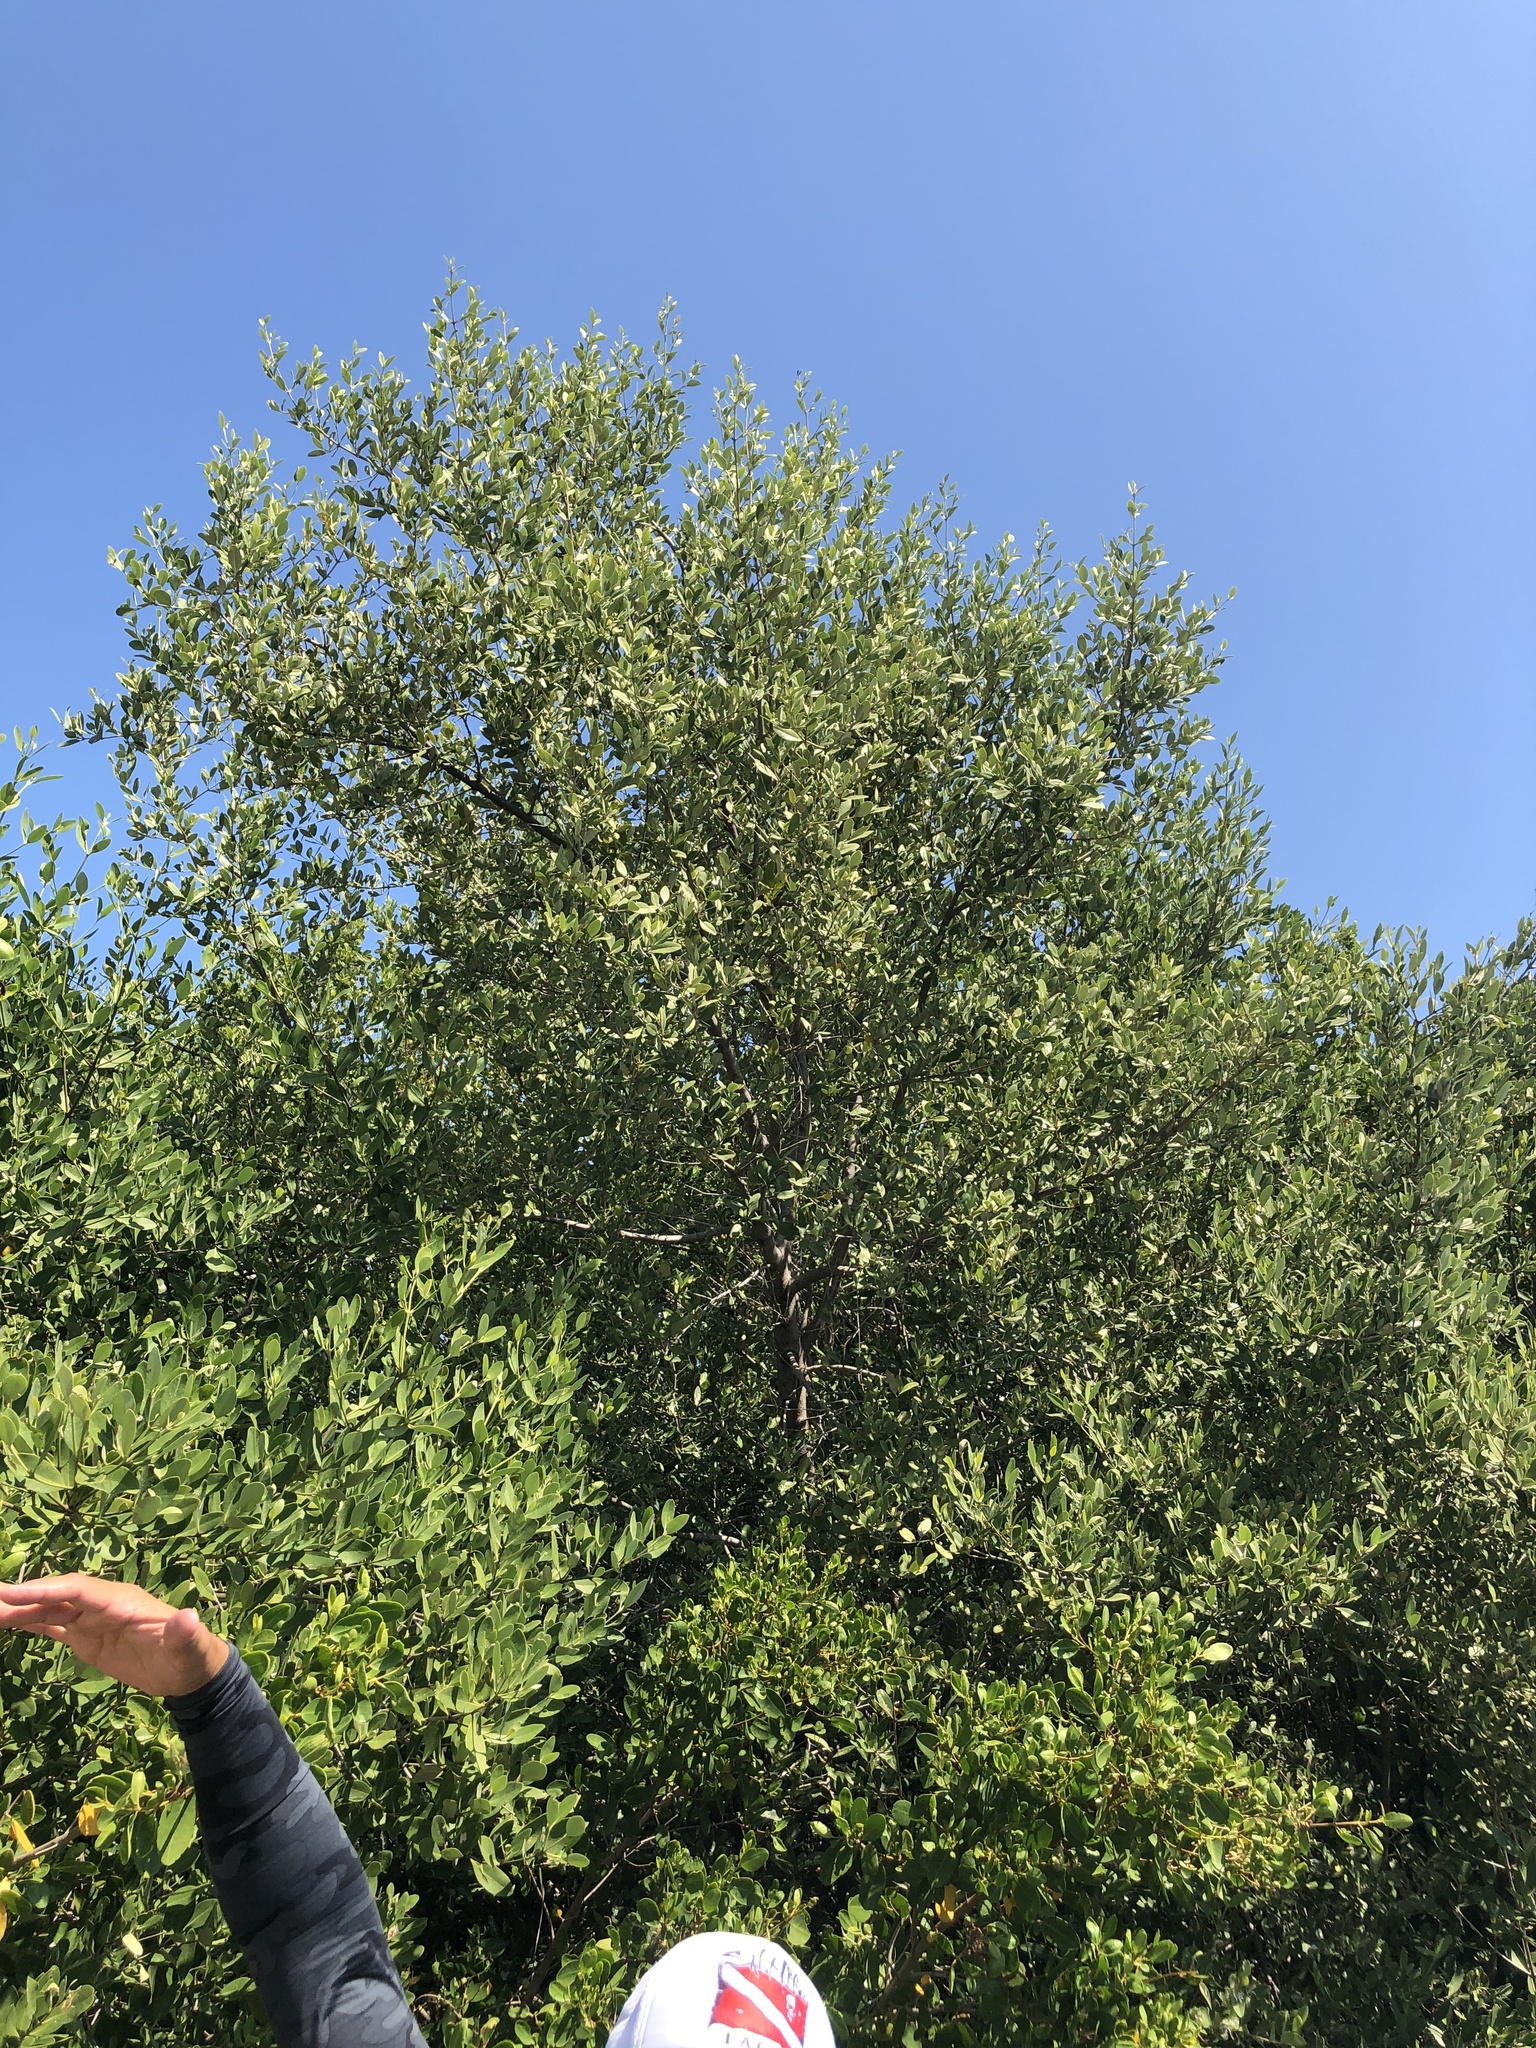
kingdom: Plantae
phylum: Tracheophyta
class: Magnoliopsida
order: Lamiales
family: Acanthaceae
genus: Avicennia
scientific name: Avicennia germinans
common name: Black mangrove
